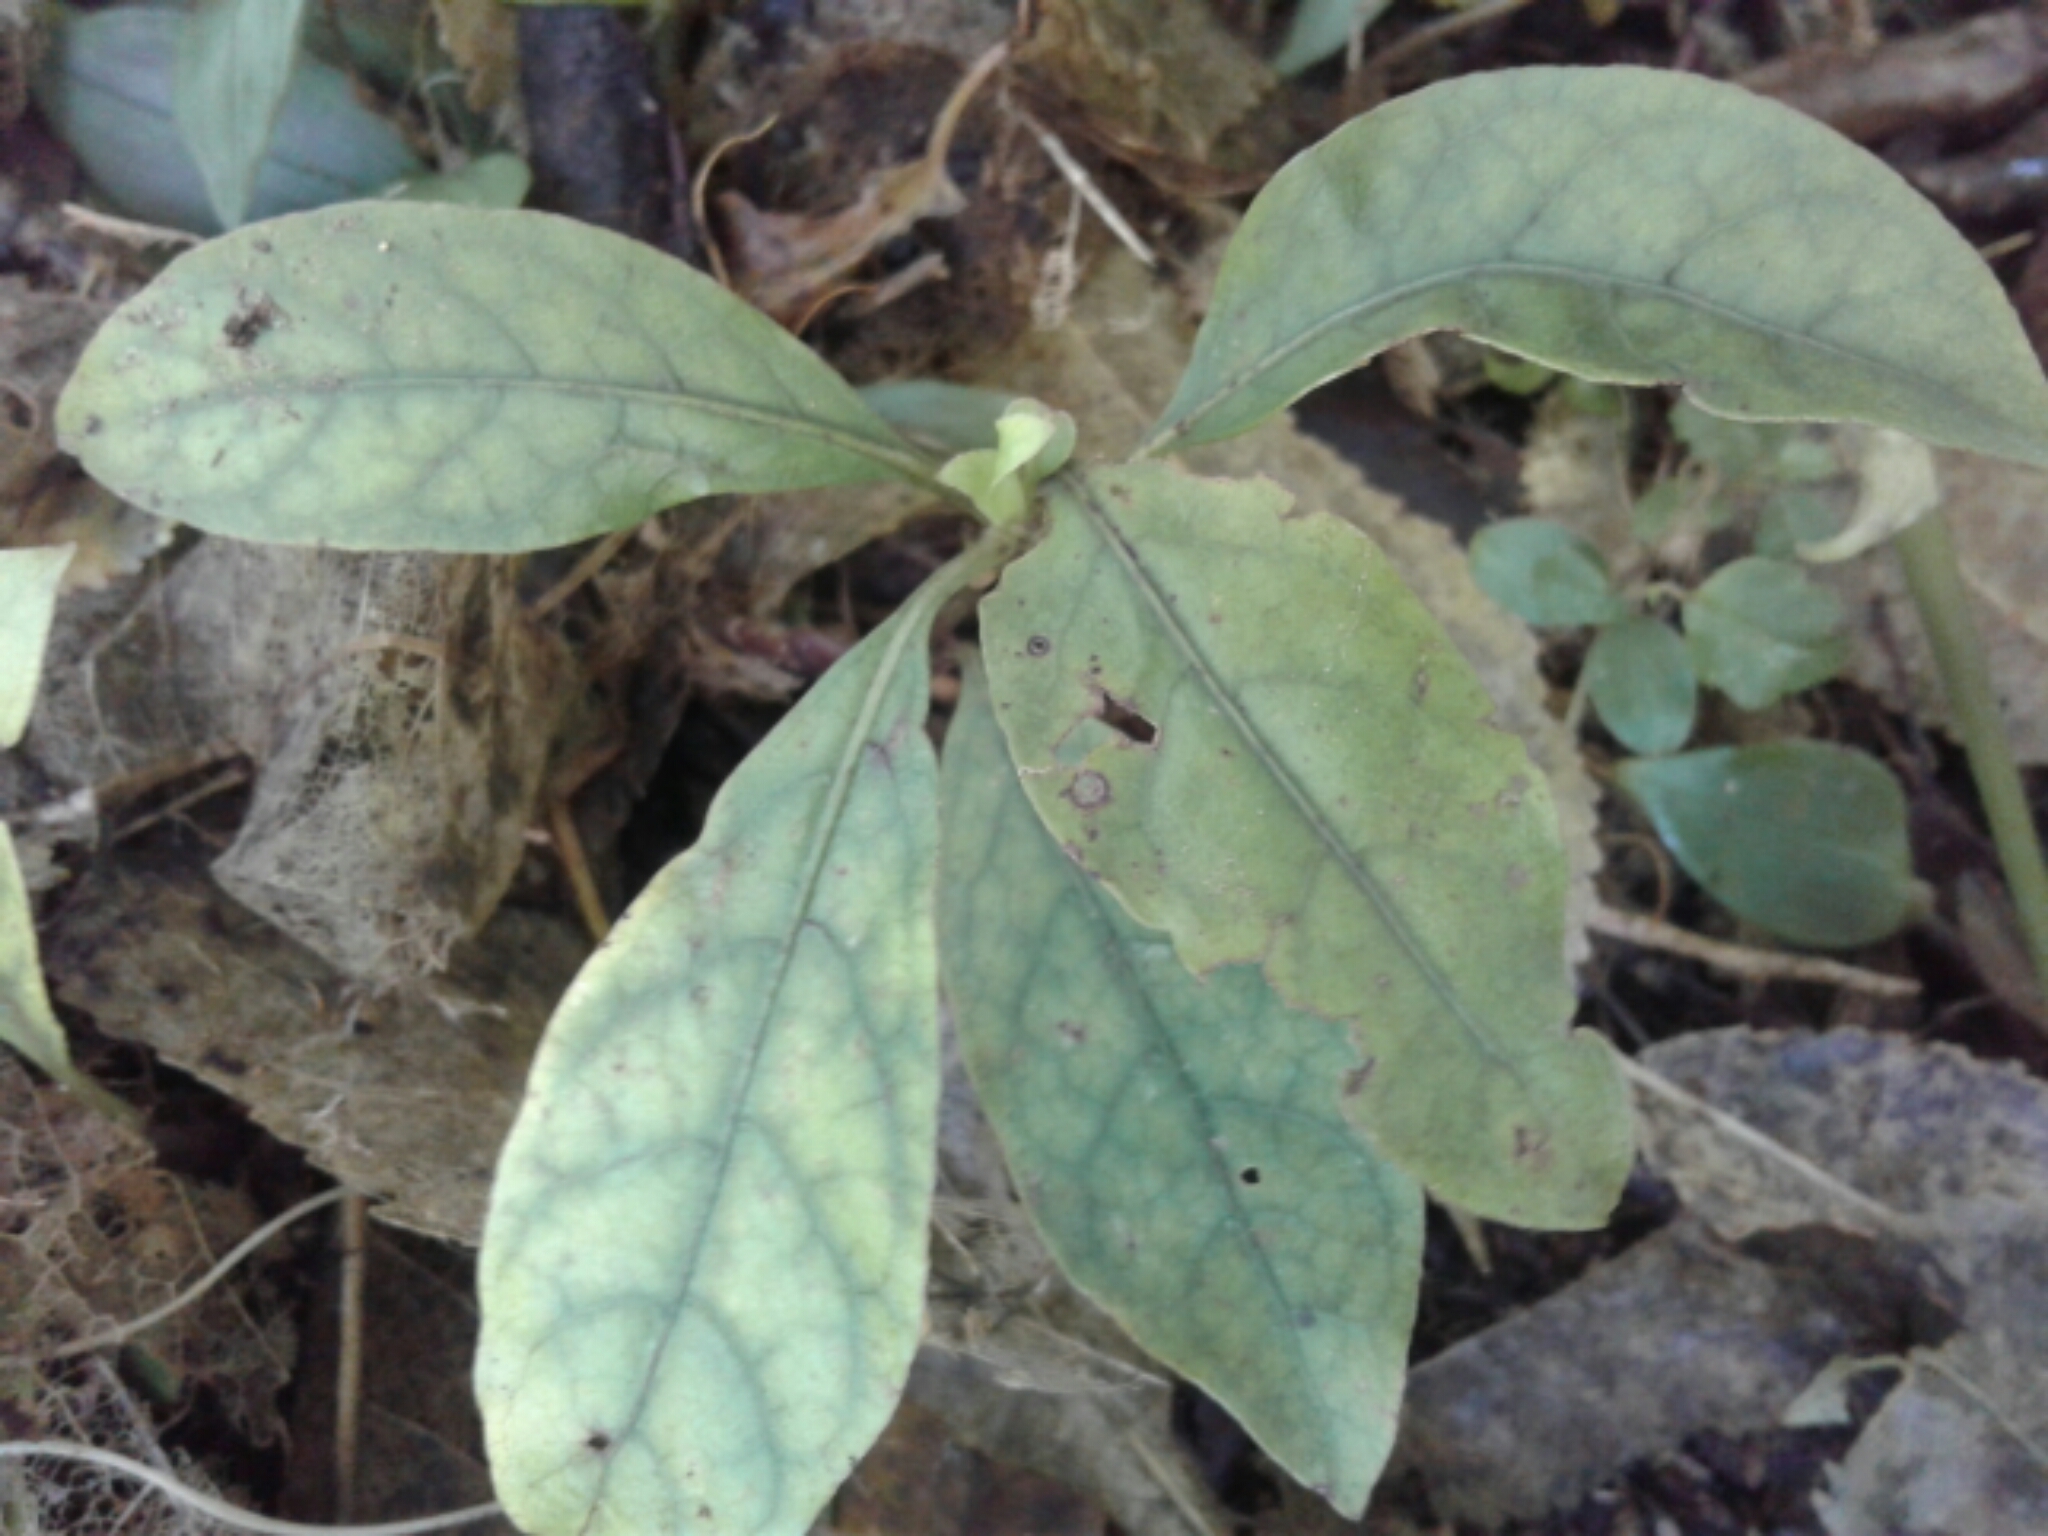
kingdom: Plantae
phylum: Tracheophyta
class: Magnoliopsida
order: Gentianales
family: Rubiaceae
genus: Coprosma
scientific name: Coprosma autumnalis
